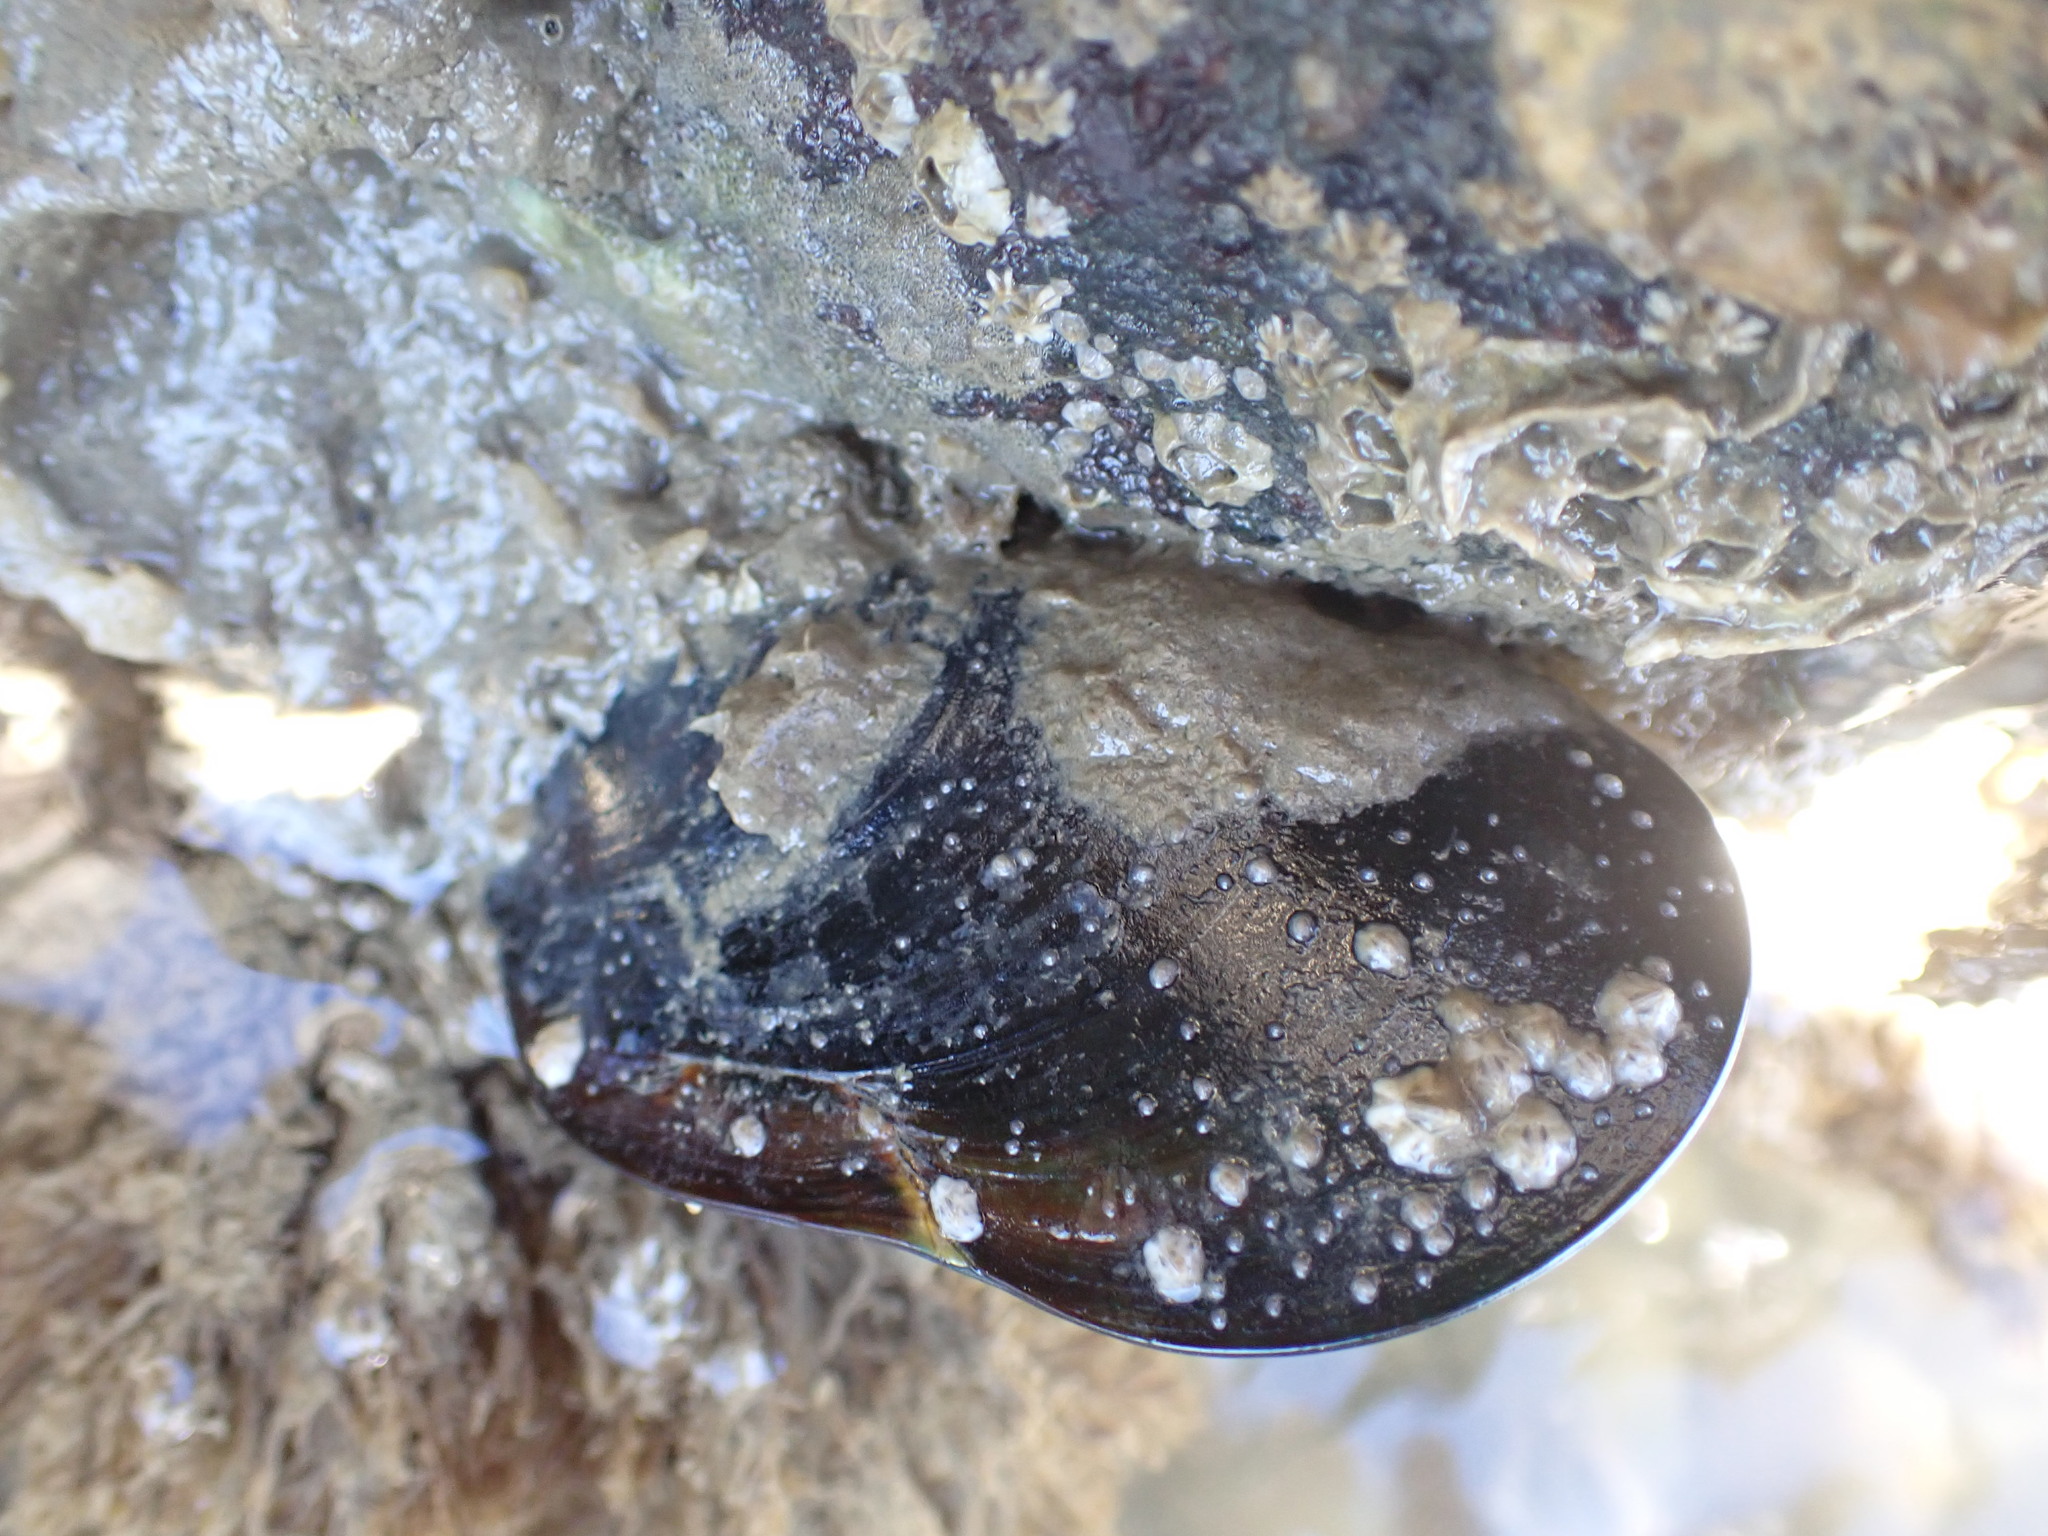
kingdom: Animalia
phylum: Mollusca
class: Bivalvia
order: Mytilida
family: Mytilidae
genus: Perna
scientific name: Perna canaliculus
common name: New zealand greenshelltm
